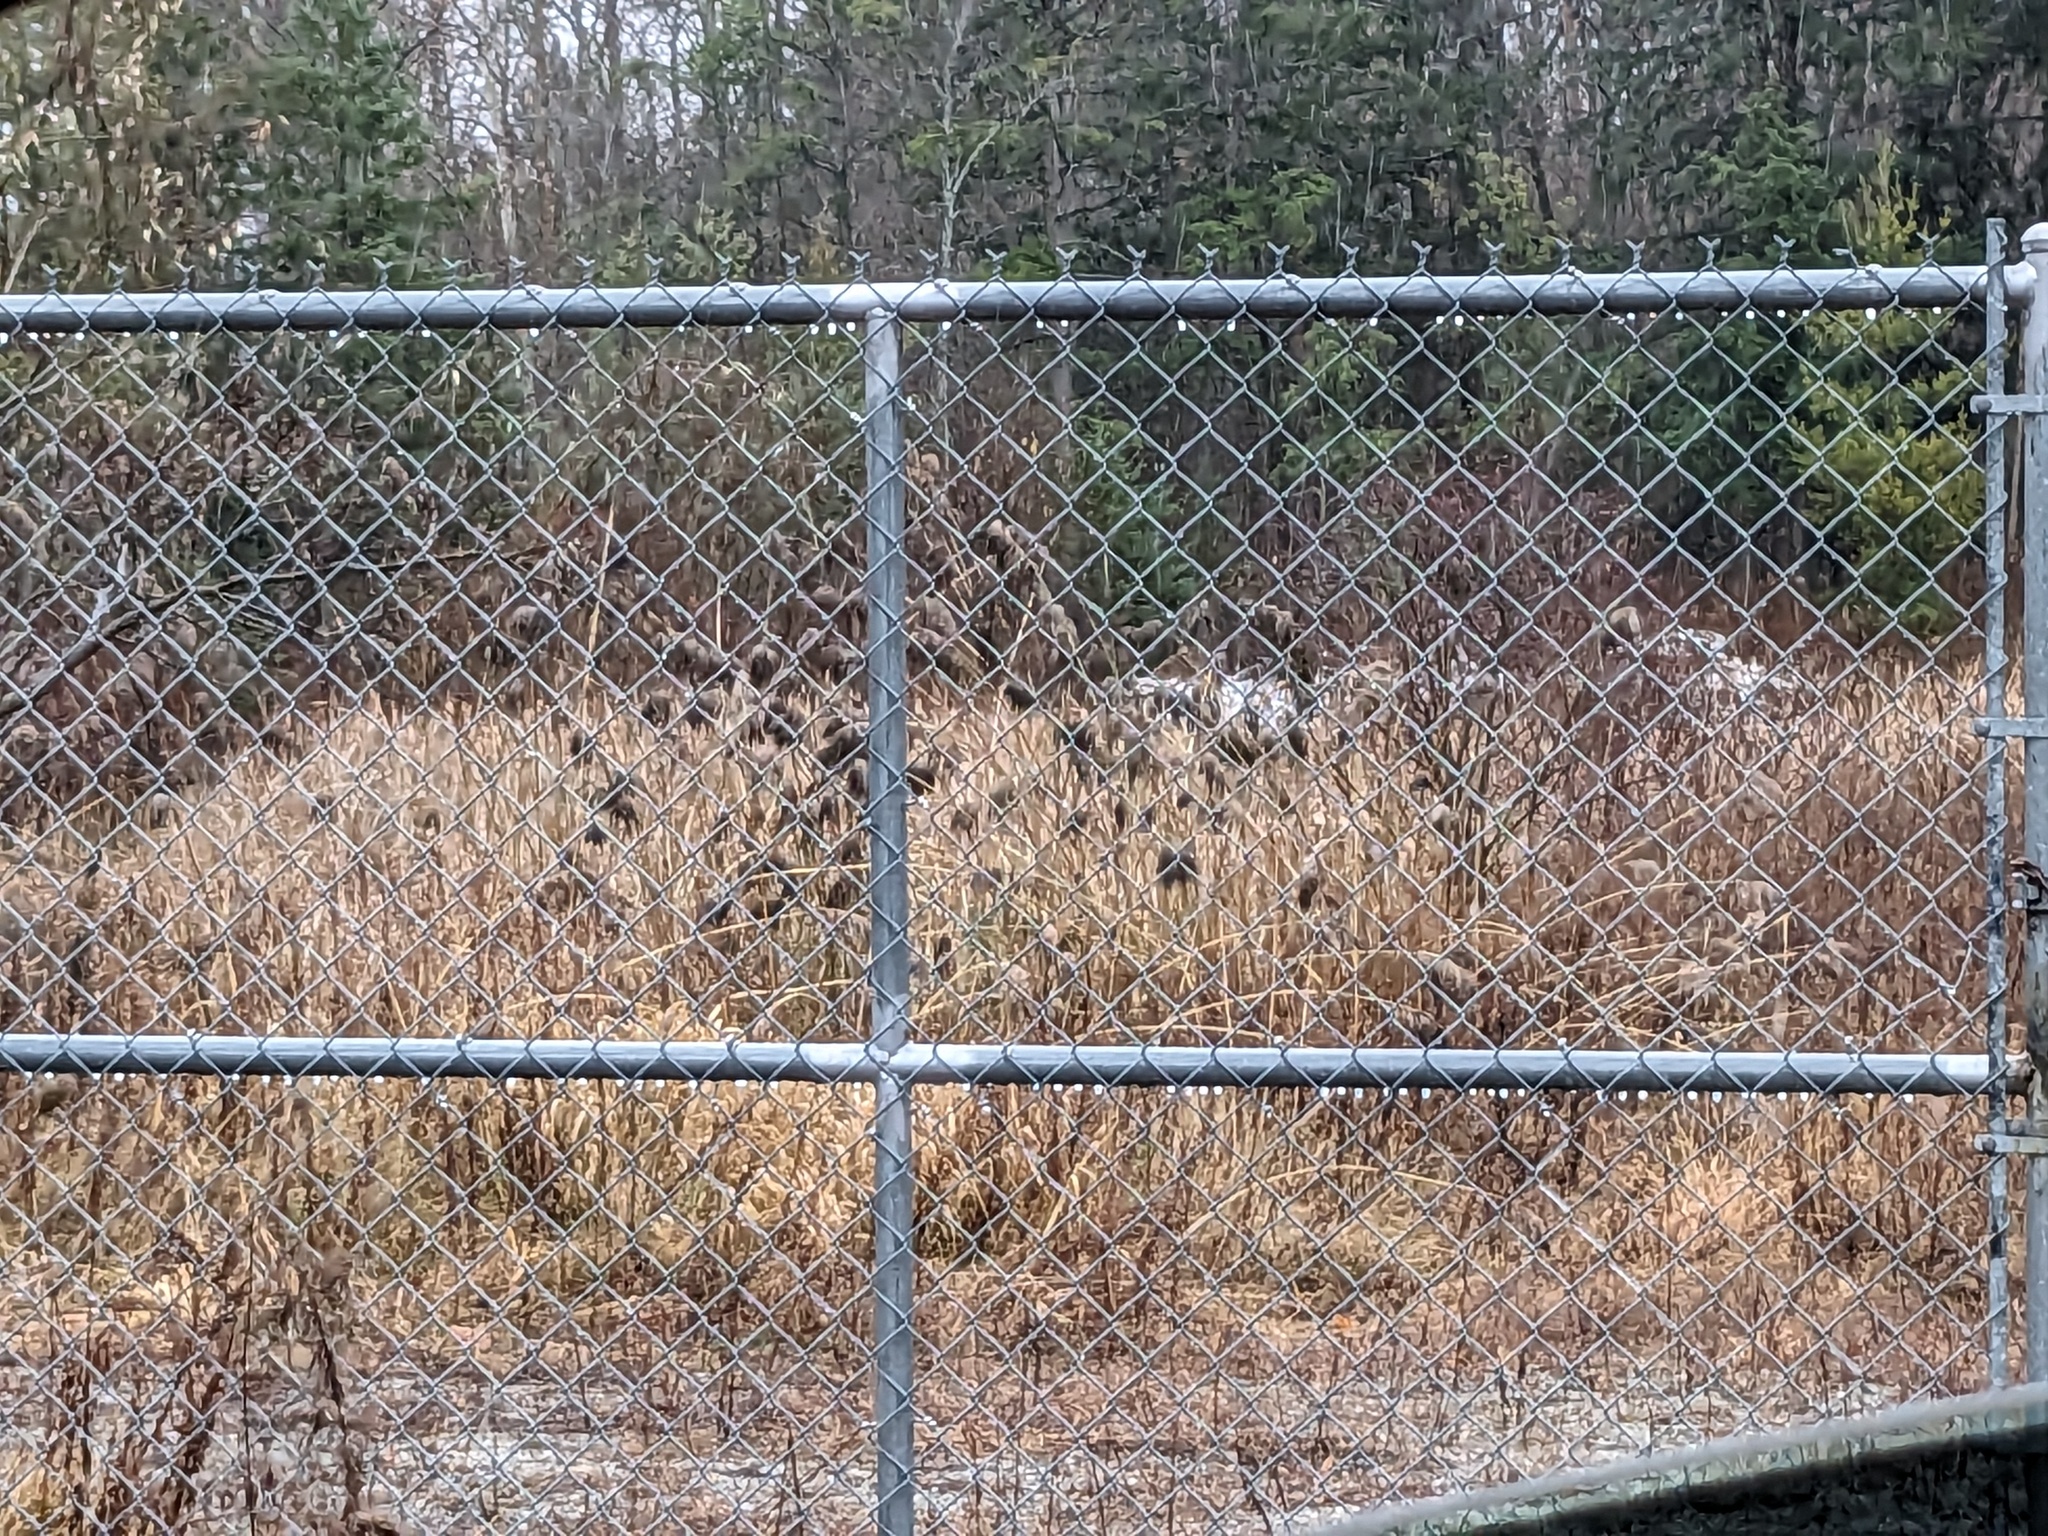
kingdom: Plantae
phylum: Tracheophyta
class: Liliopsida
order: Poales
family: Poaceae
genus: Phragmites
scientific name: Phragmites australis
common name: Common reed
